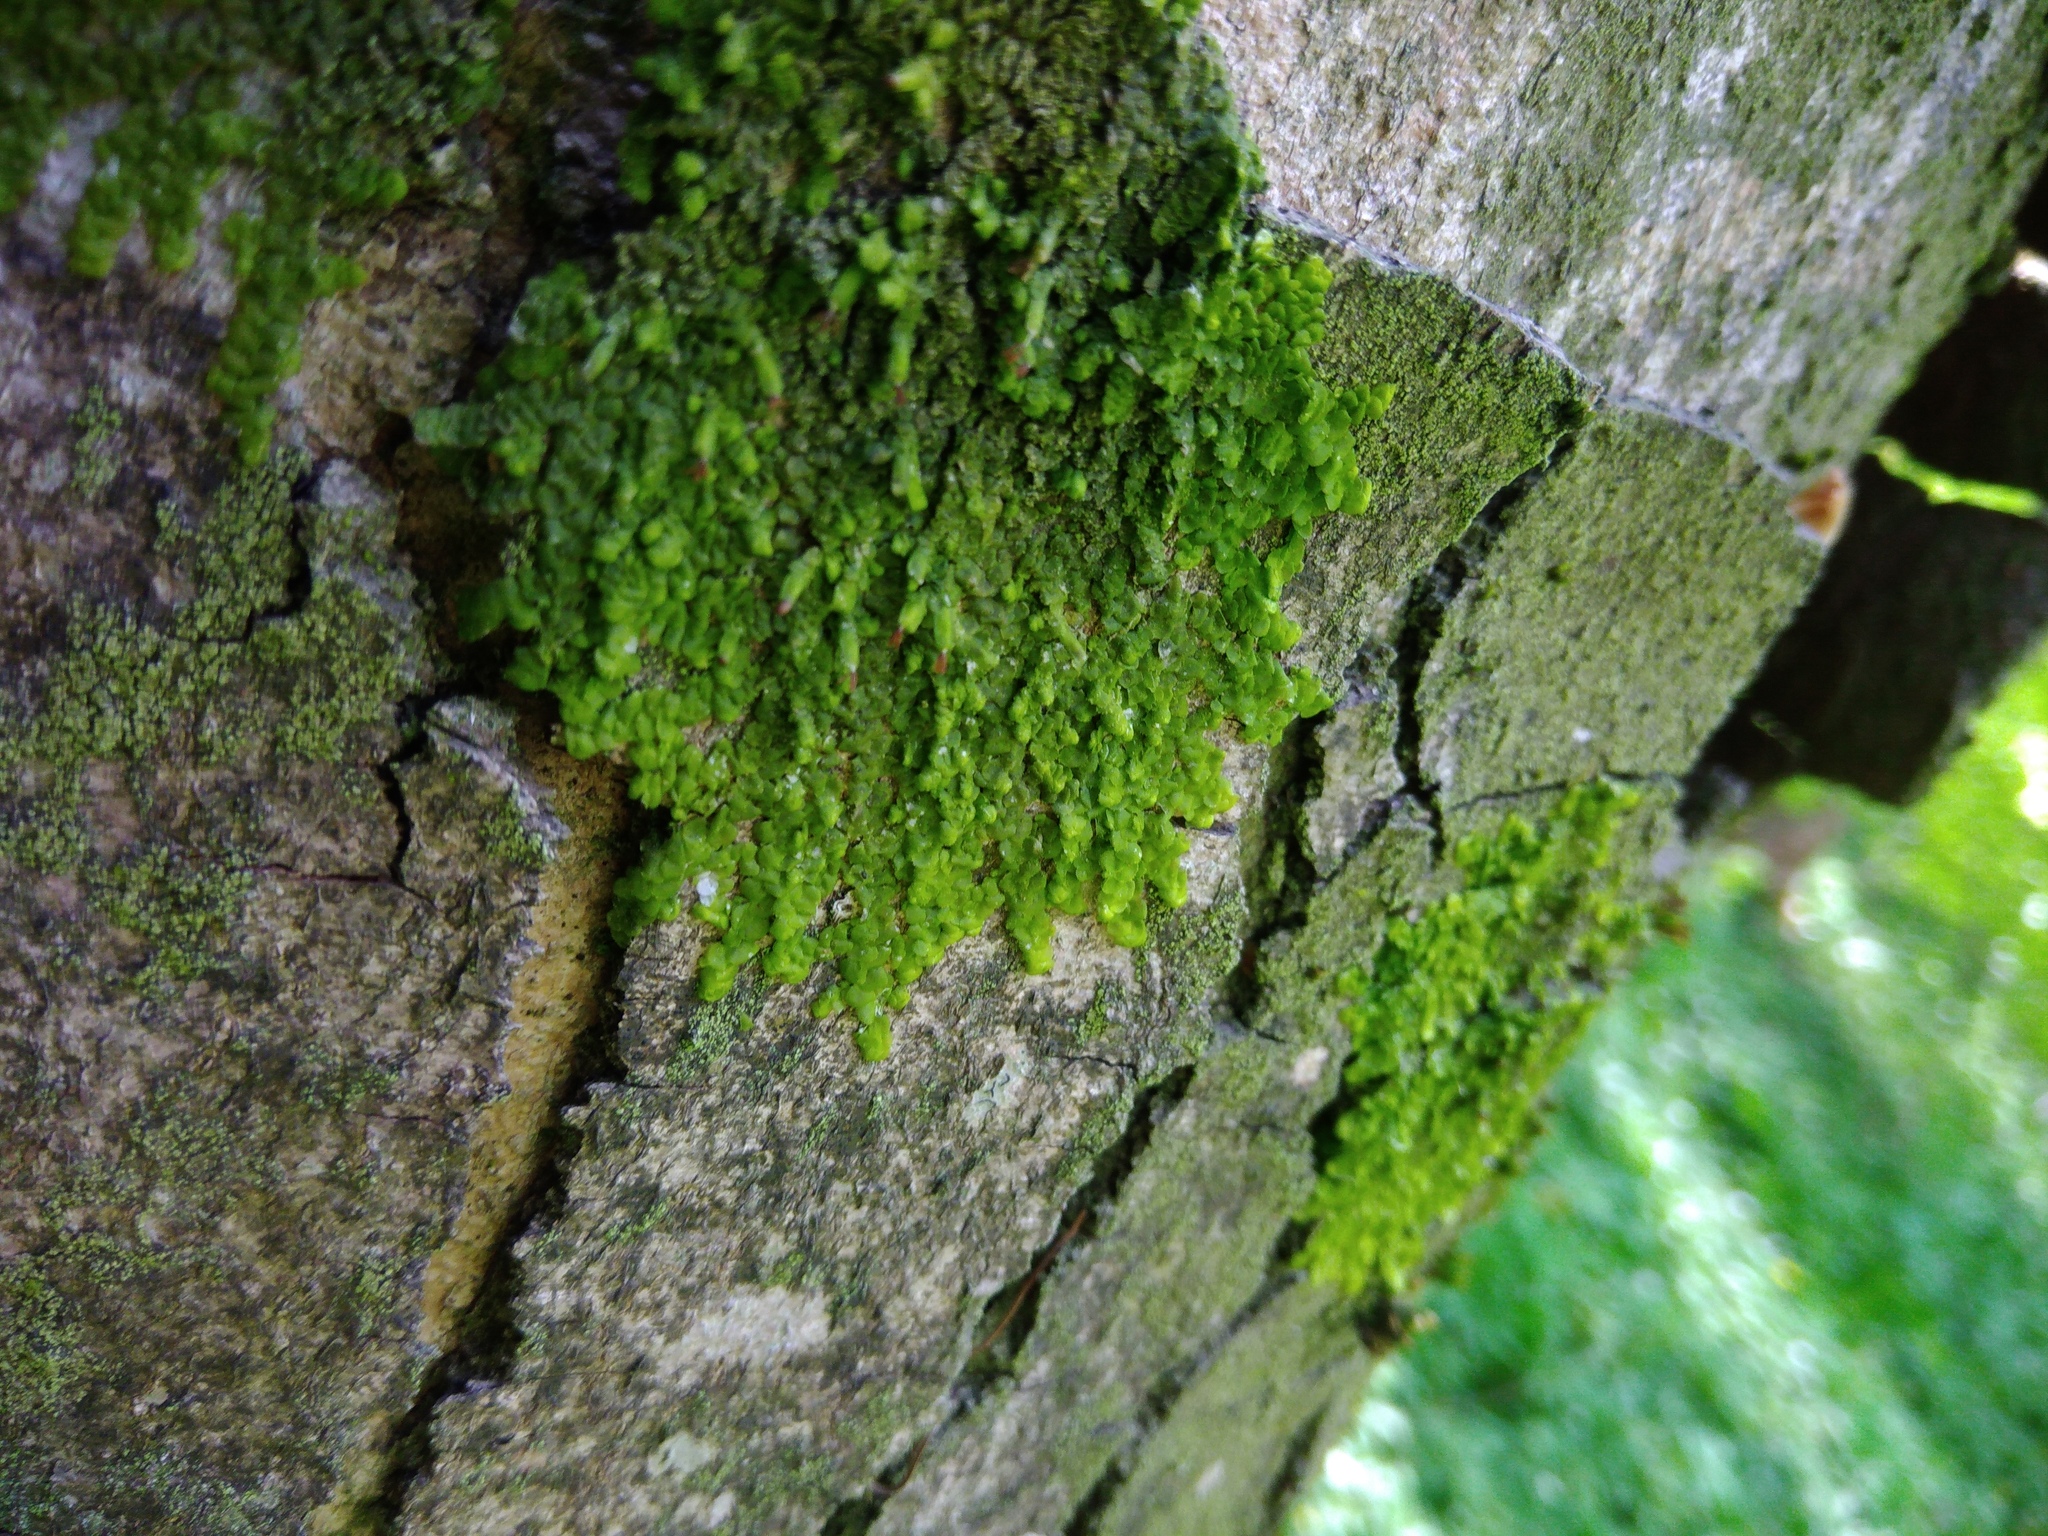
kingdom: Plantae
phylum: Marchantiophyta
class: Jungermanniopsida
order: Porellales
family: Radulaceae
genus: Radula
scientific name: Radula complanata
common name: Flat-leaved scalewort
